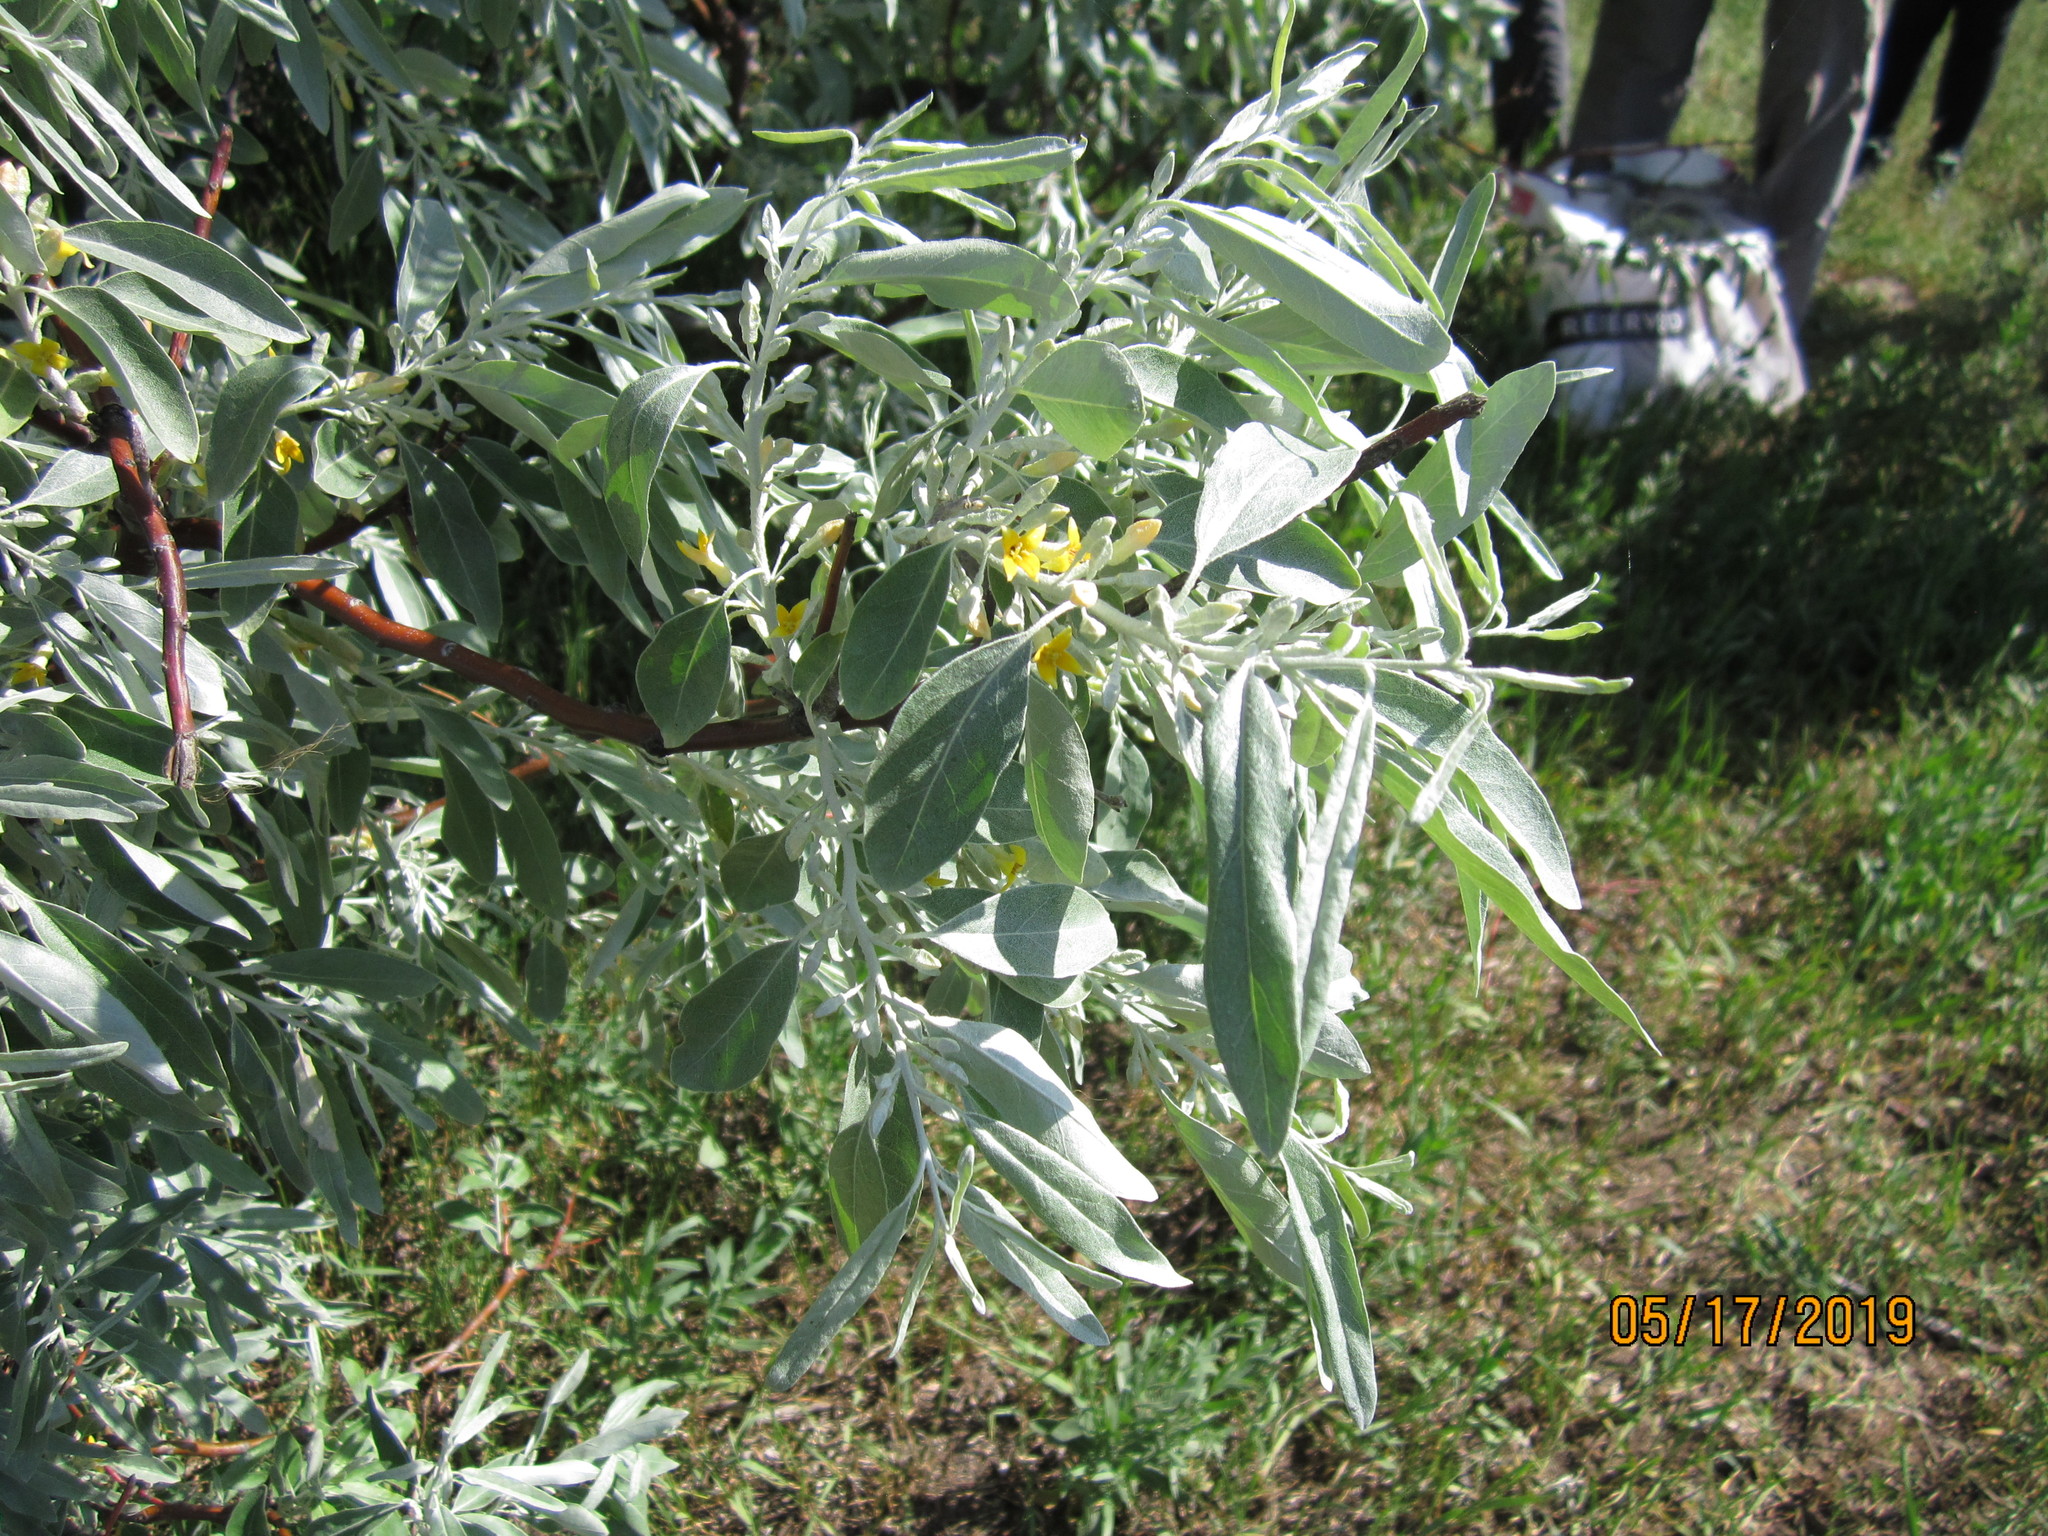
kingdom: Plantae
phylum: Tracheophyta
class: Magnoliopsida
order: Rosales
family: Elaeagnaceae
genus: Elaeagnus
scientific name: Elaeagnus angustifolia
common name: Russian olive
